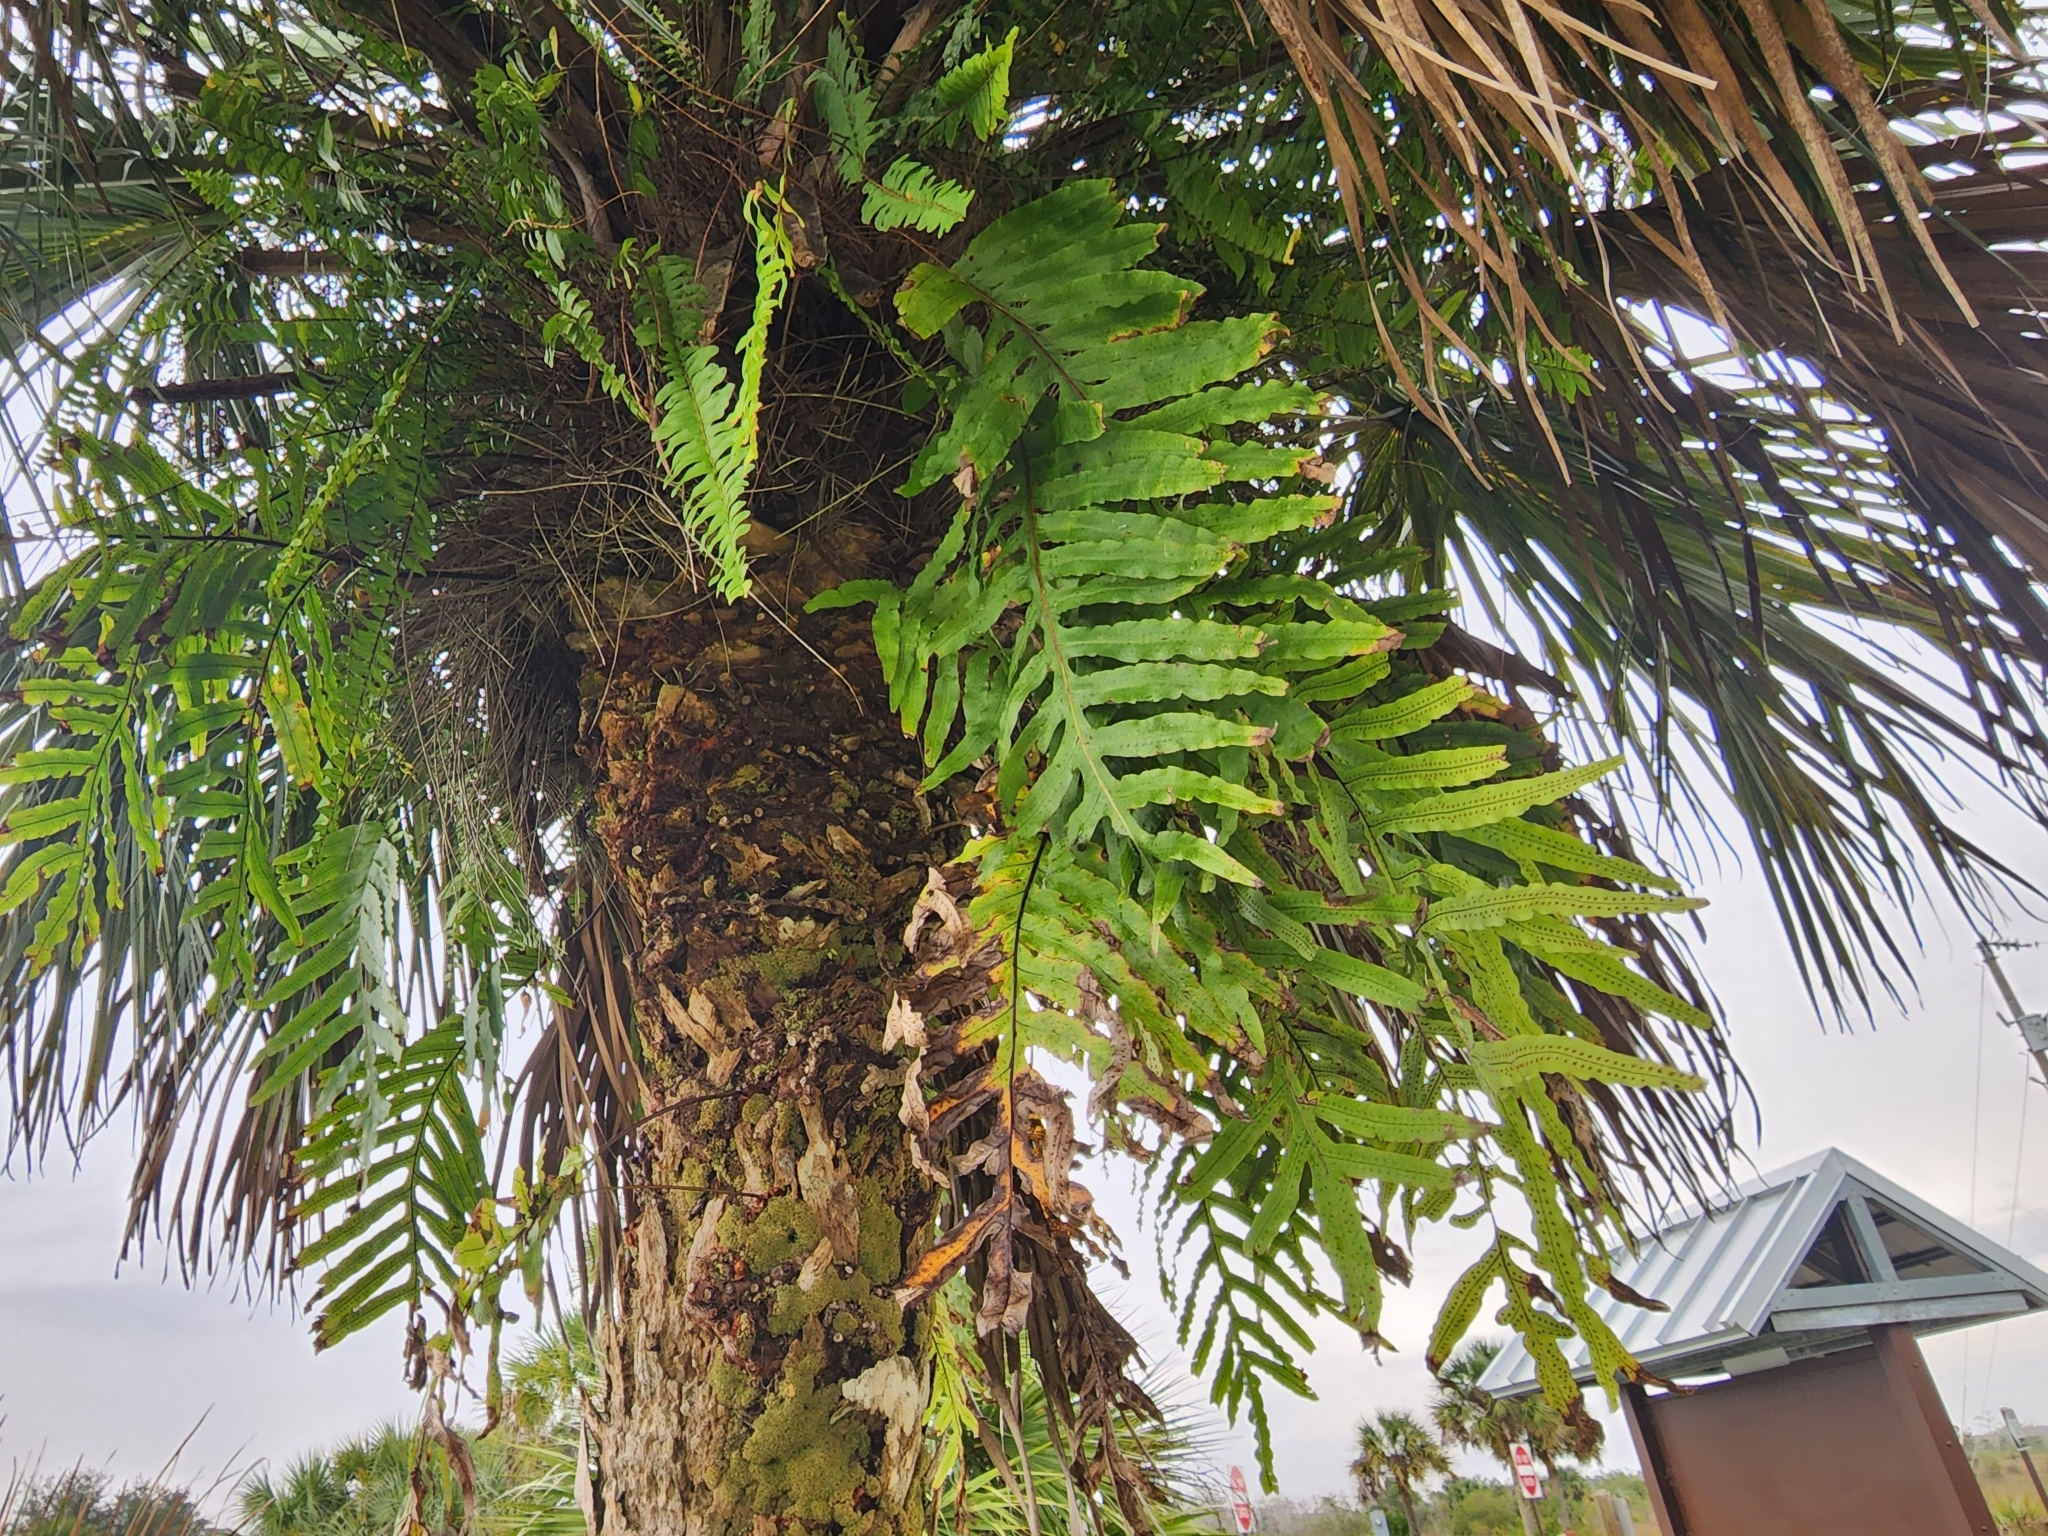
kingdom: Plantae
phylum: Tracheophyta
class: Polypodiopsida
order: Polypodiales
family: Polypodiaceae
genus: Phlebodium
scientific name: Phlebodium aureum
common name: Gold-foot fern
